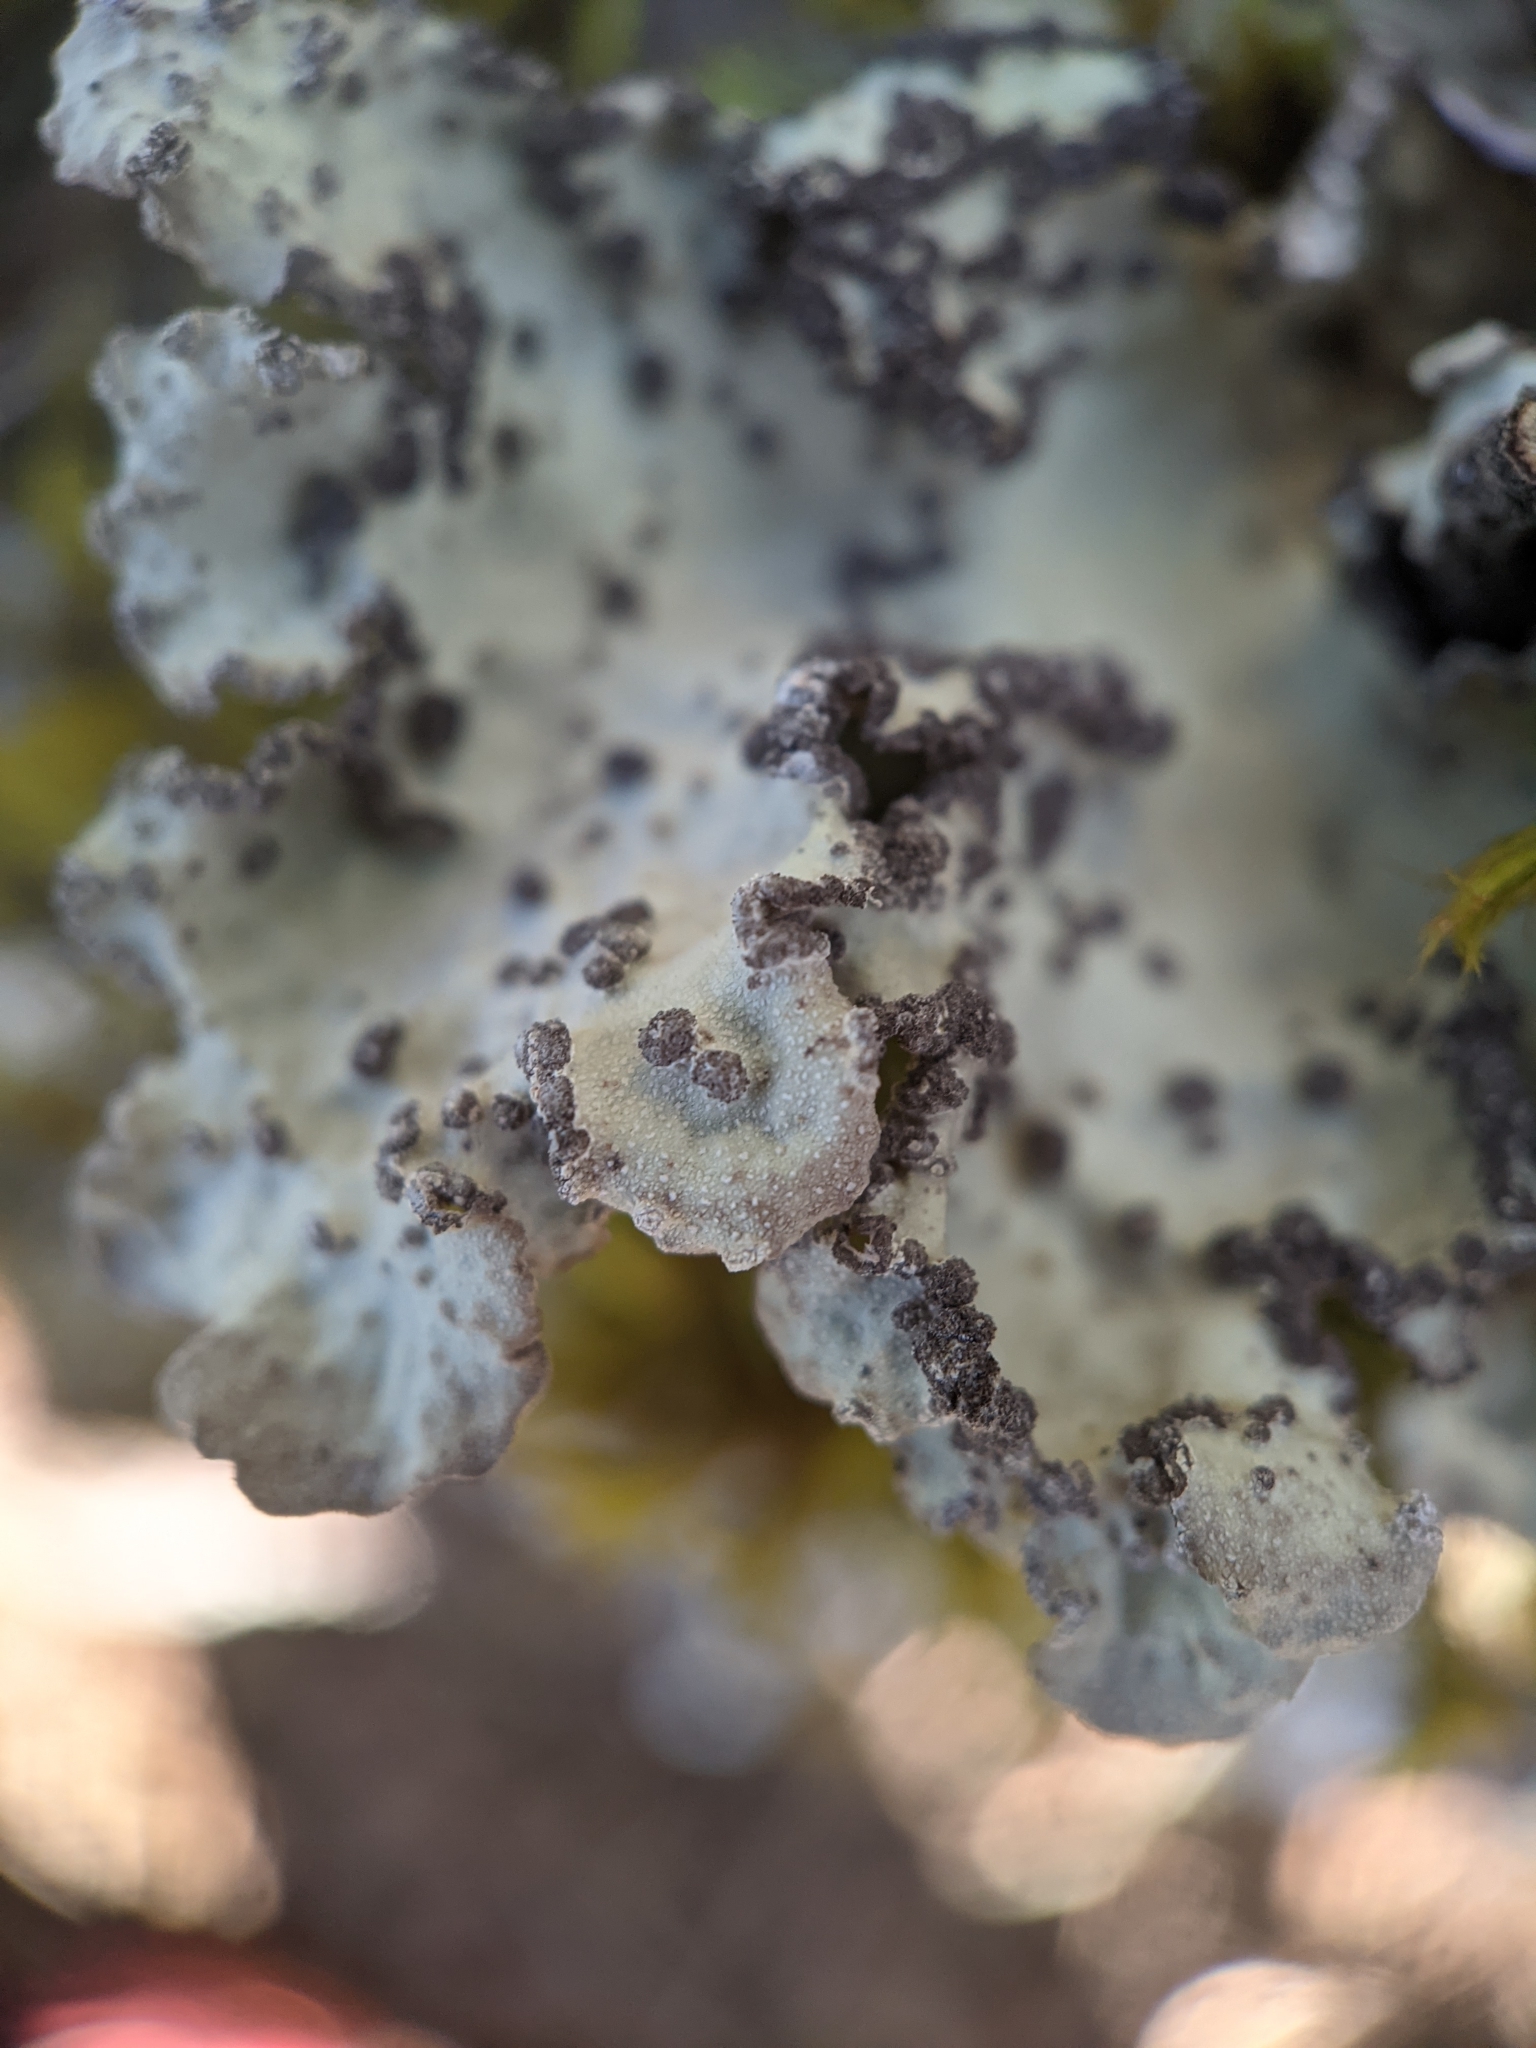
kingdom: Fungi
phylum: Ascomycota
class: Lecanoromycetes
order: Peltigerales
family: Lobariaceae
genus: Lobarina
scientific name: Lobarina scrobiculata
